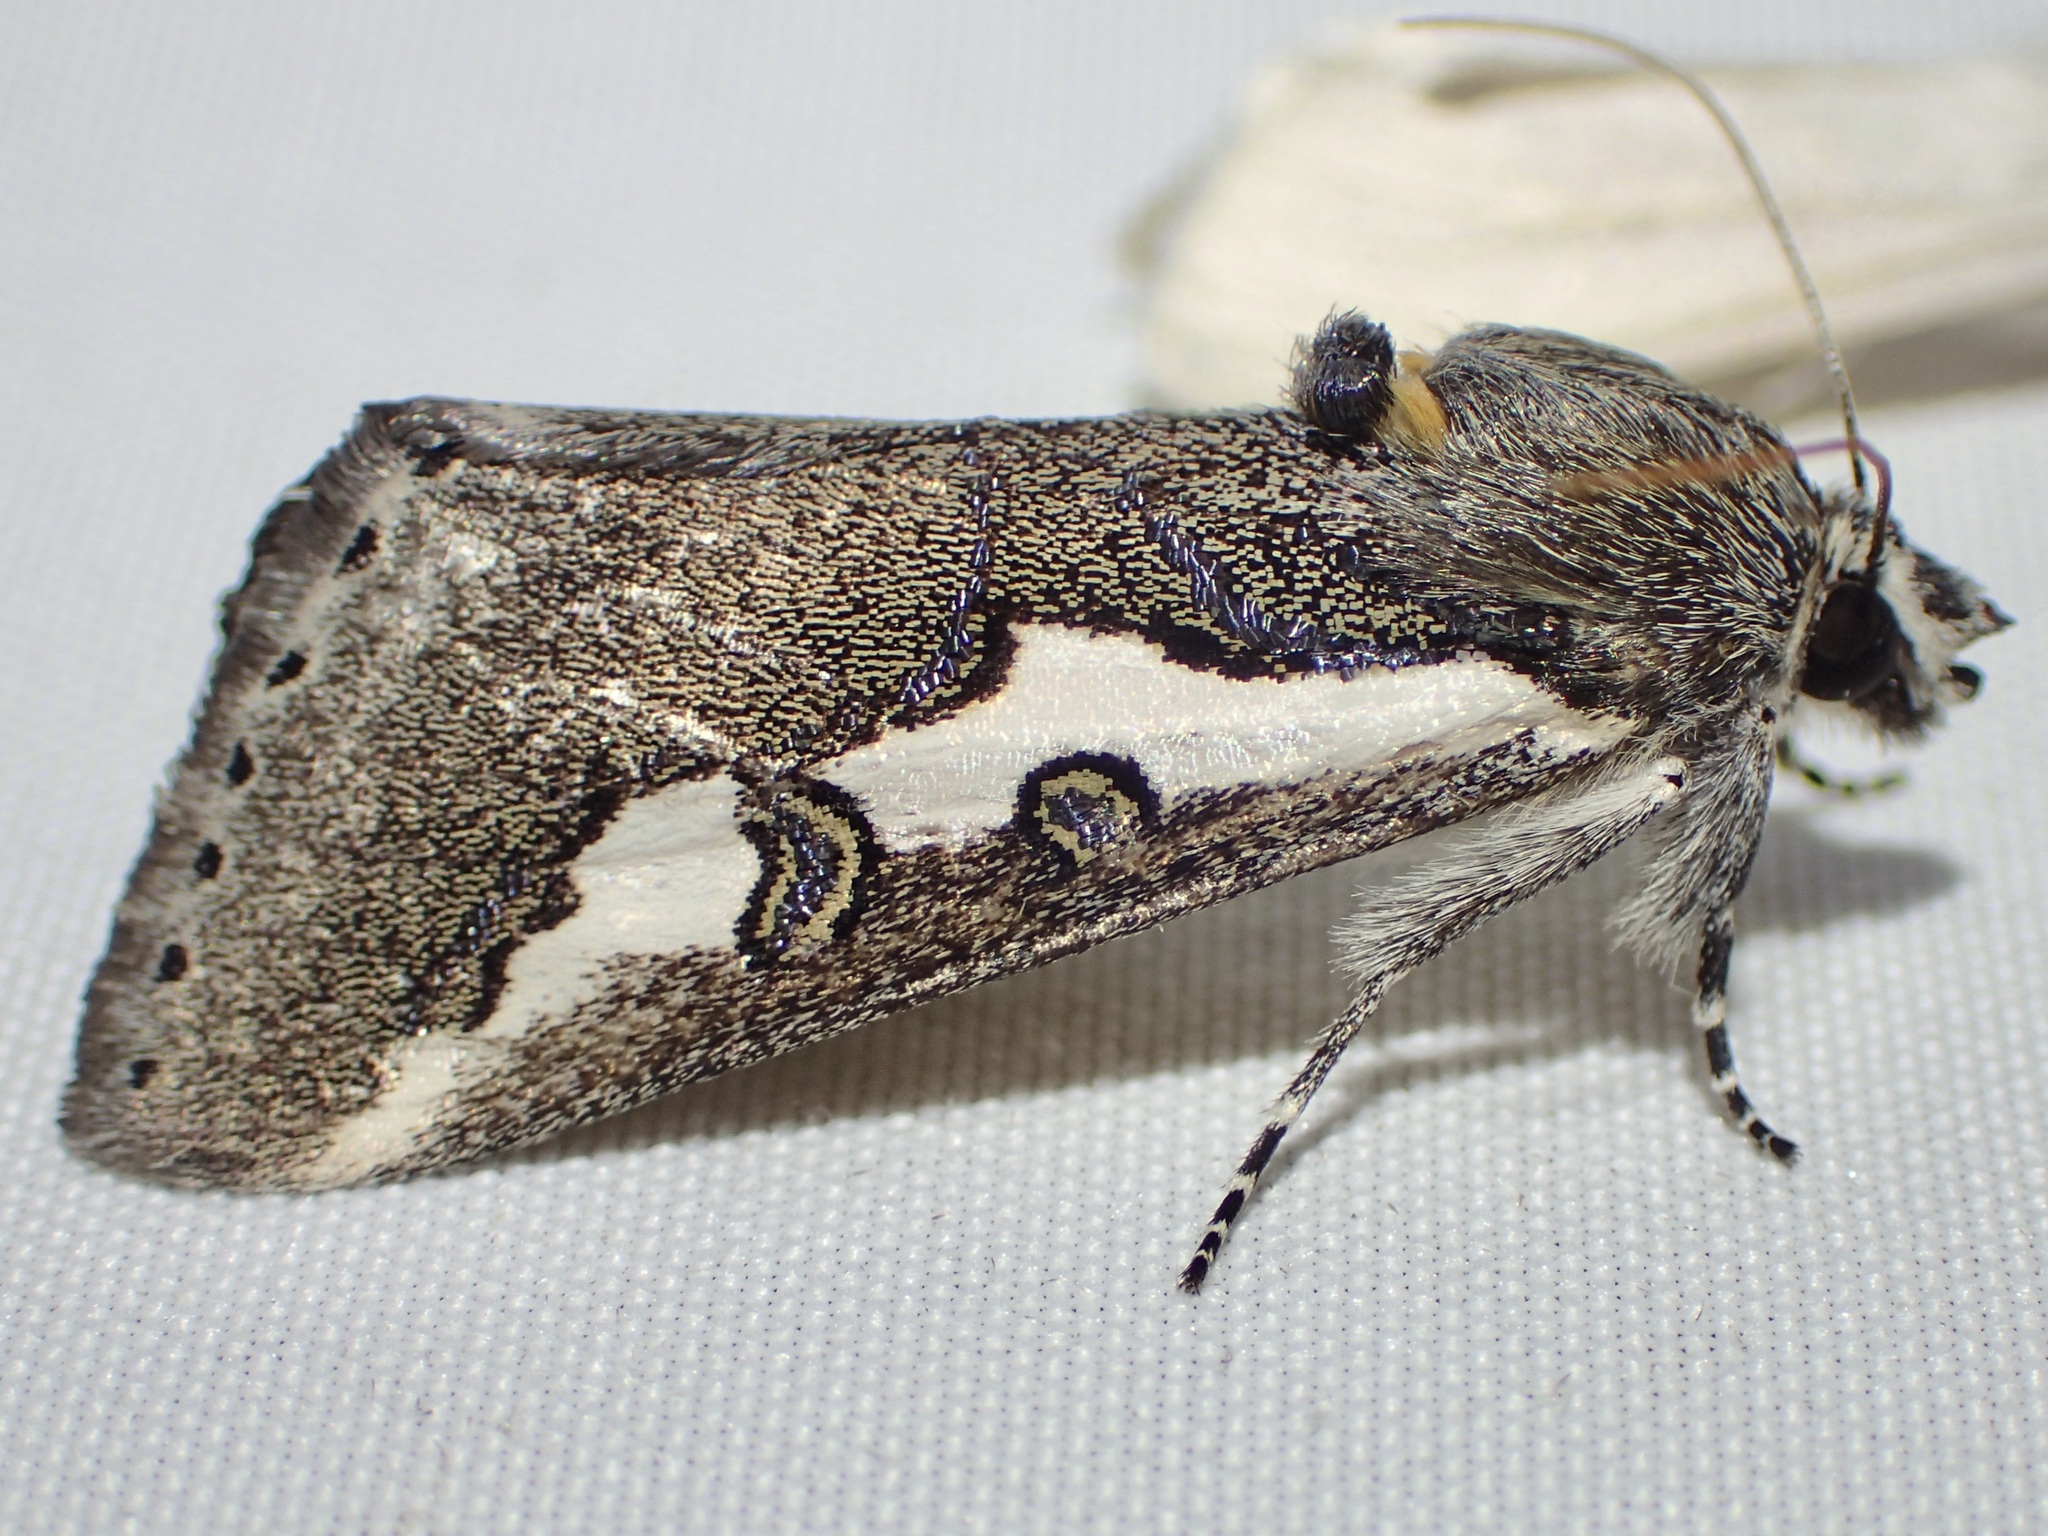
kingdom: Animalia
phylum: Arthropoda
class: Insecta
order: Lepidoptera
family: Noctuidae
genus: Euscirrhopterus
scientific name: Euscirrhopterus gloveri
